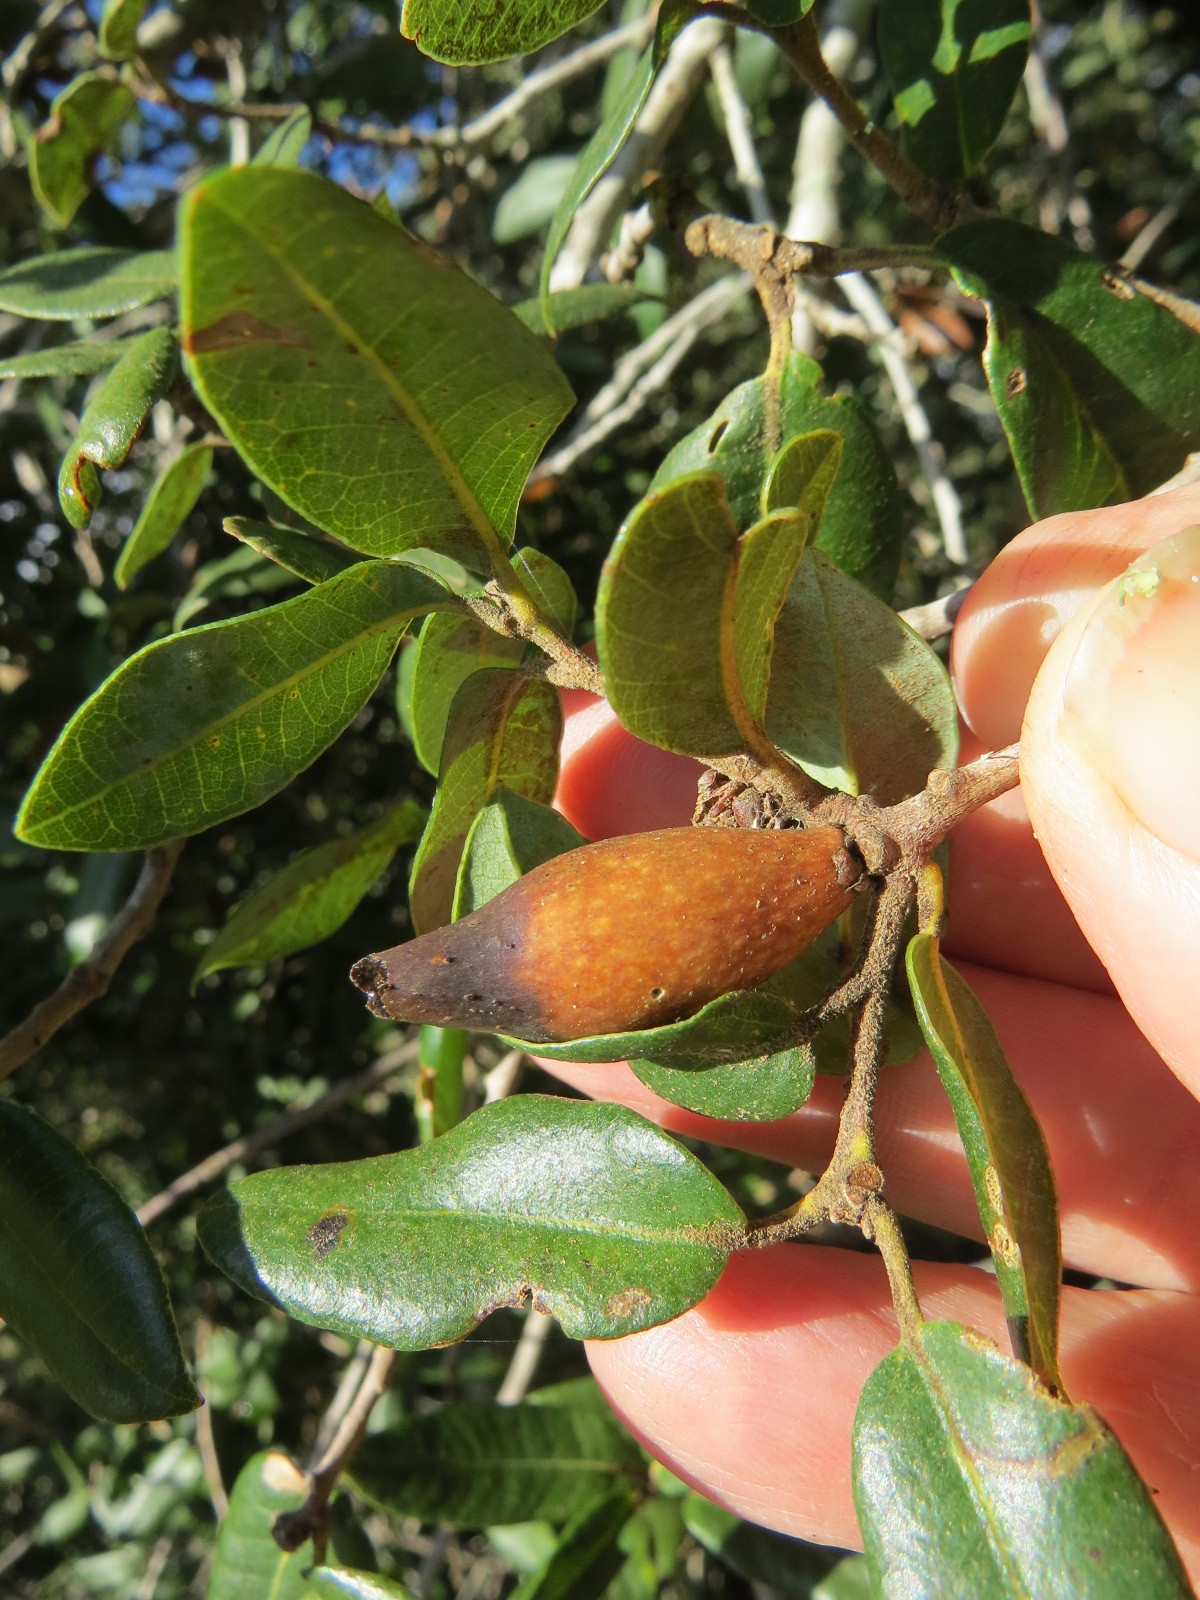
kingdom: Animalia
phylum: Arthropoda
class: Insecta
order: Hymenoptera
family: Cynipidae
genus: Heteroecus
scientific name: Heteroecus pacificus
